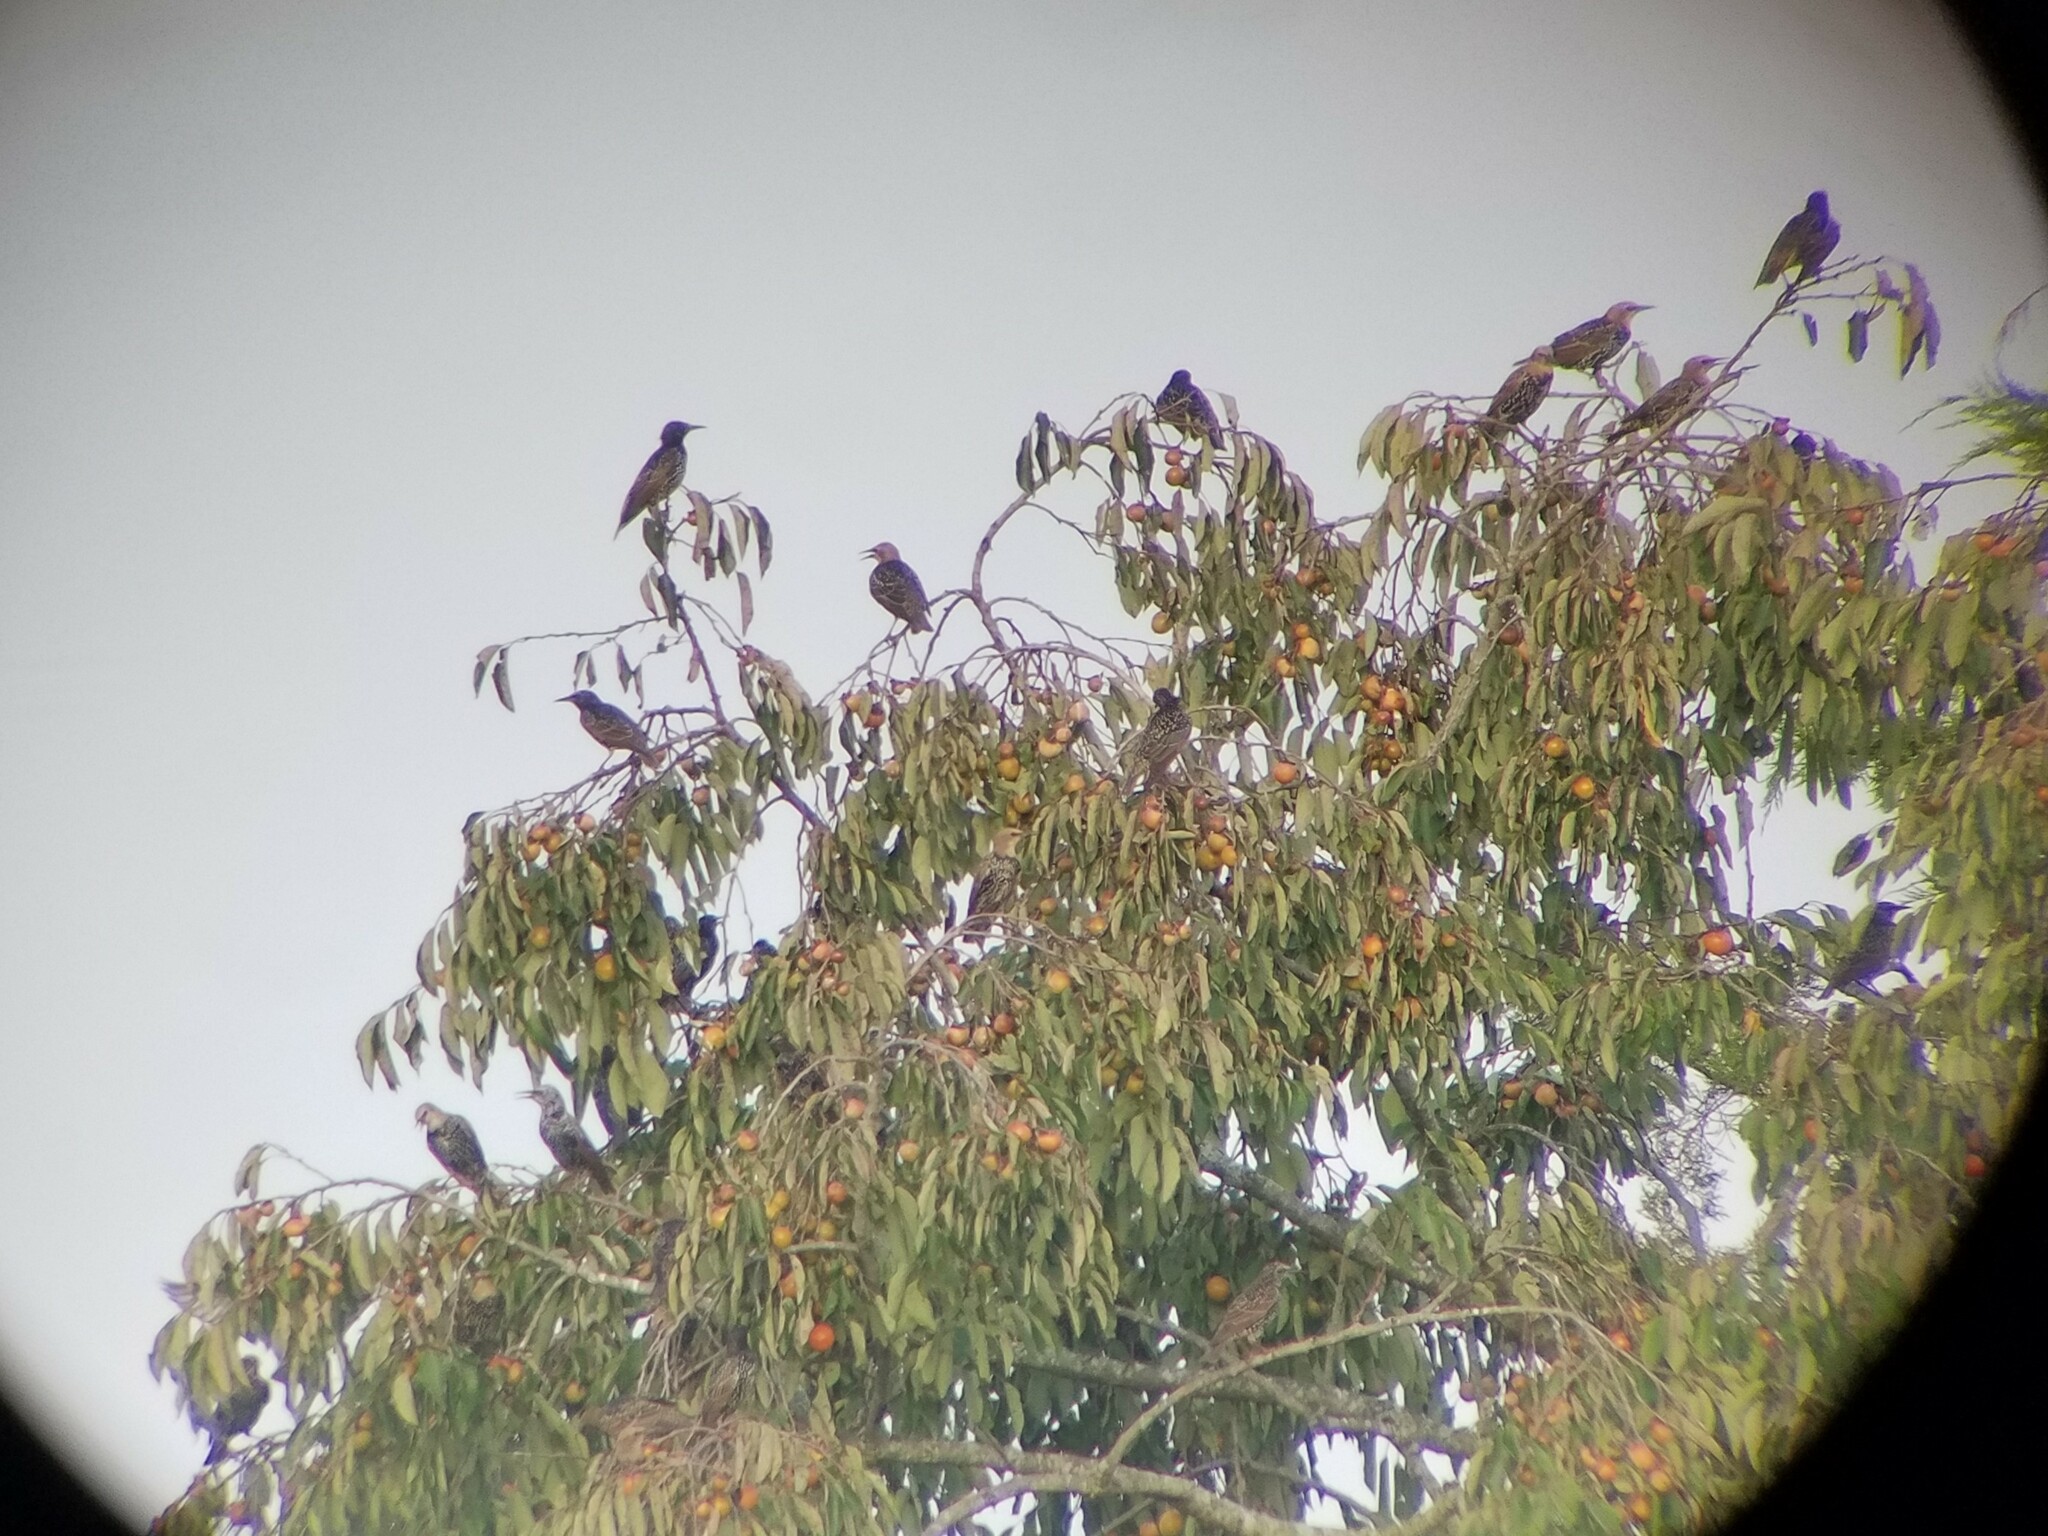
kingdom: Animalia
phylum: Chordata
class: Aves
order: Passeriformes
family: Sturnidae
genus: Sturnus
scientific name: Sturnus vulgaris
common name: Common starling
